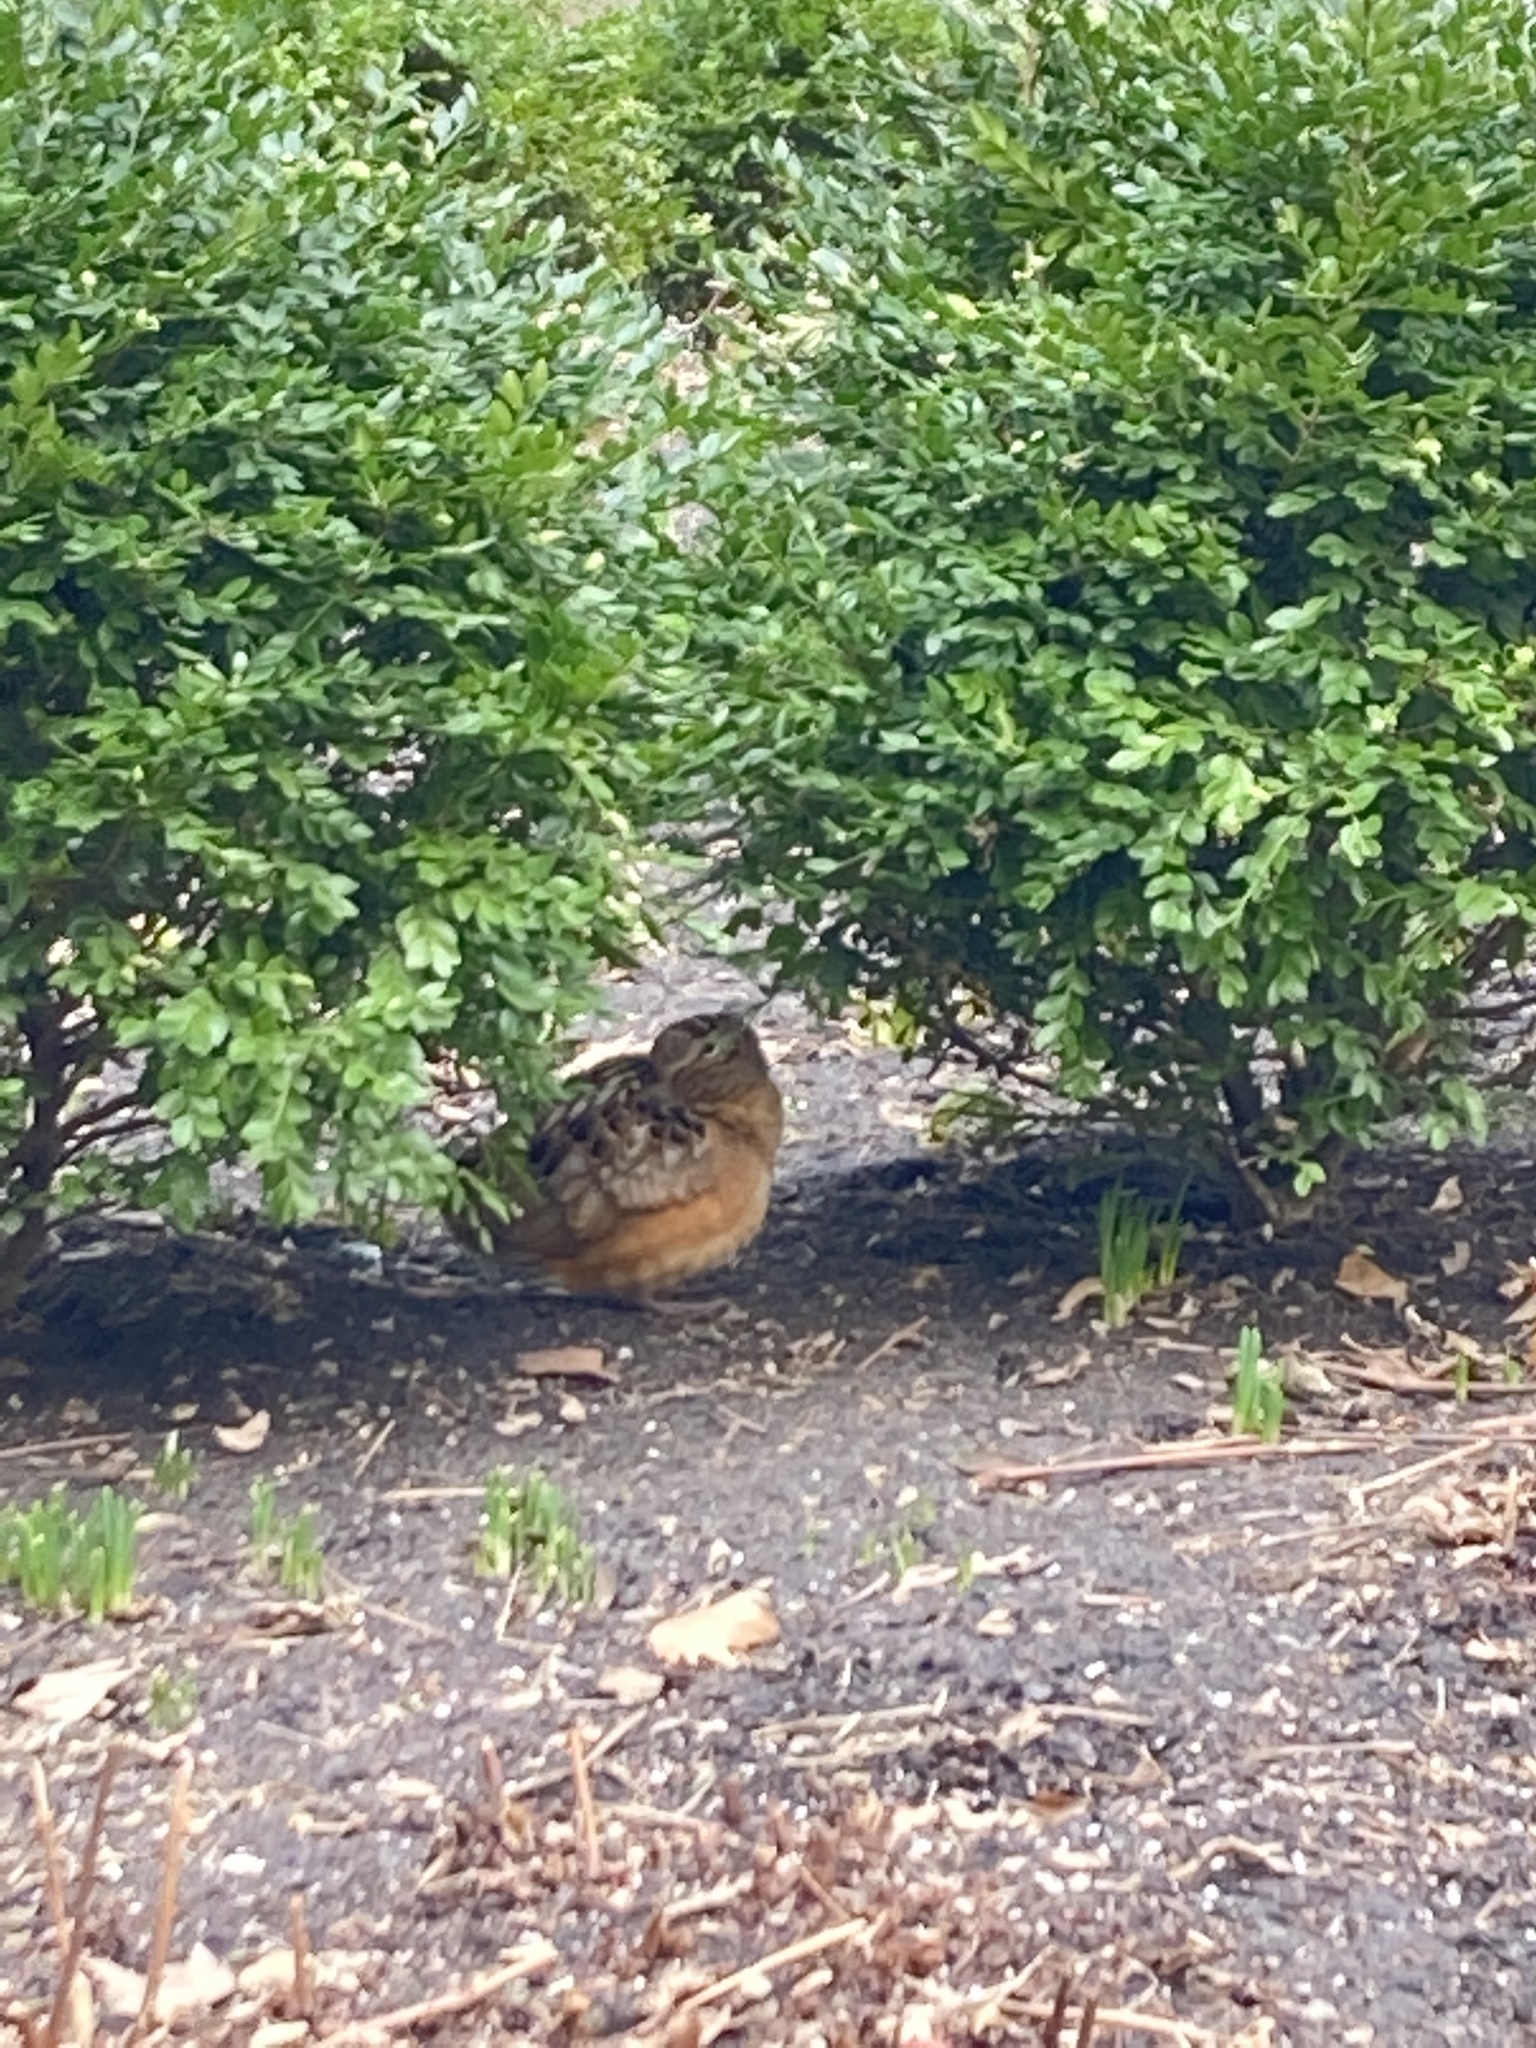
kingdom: Animalia
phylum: Chordata
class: Aves
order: Charadriiformes
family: Scolopacidae
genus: Scolopax
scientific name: Scolopax minor
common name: American woodcock
